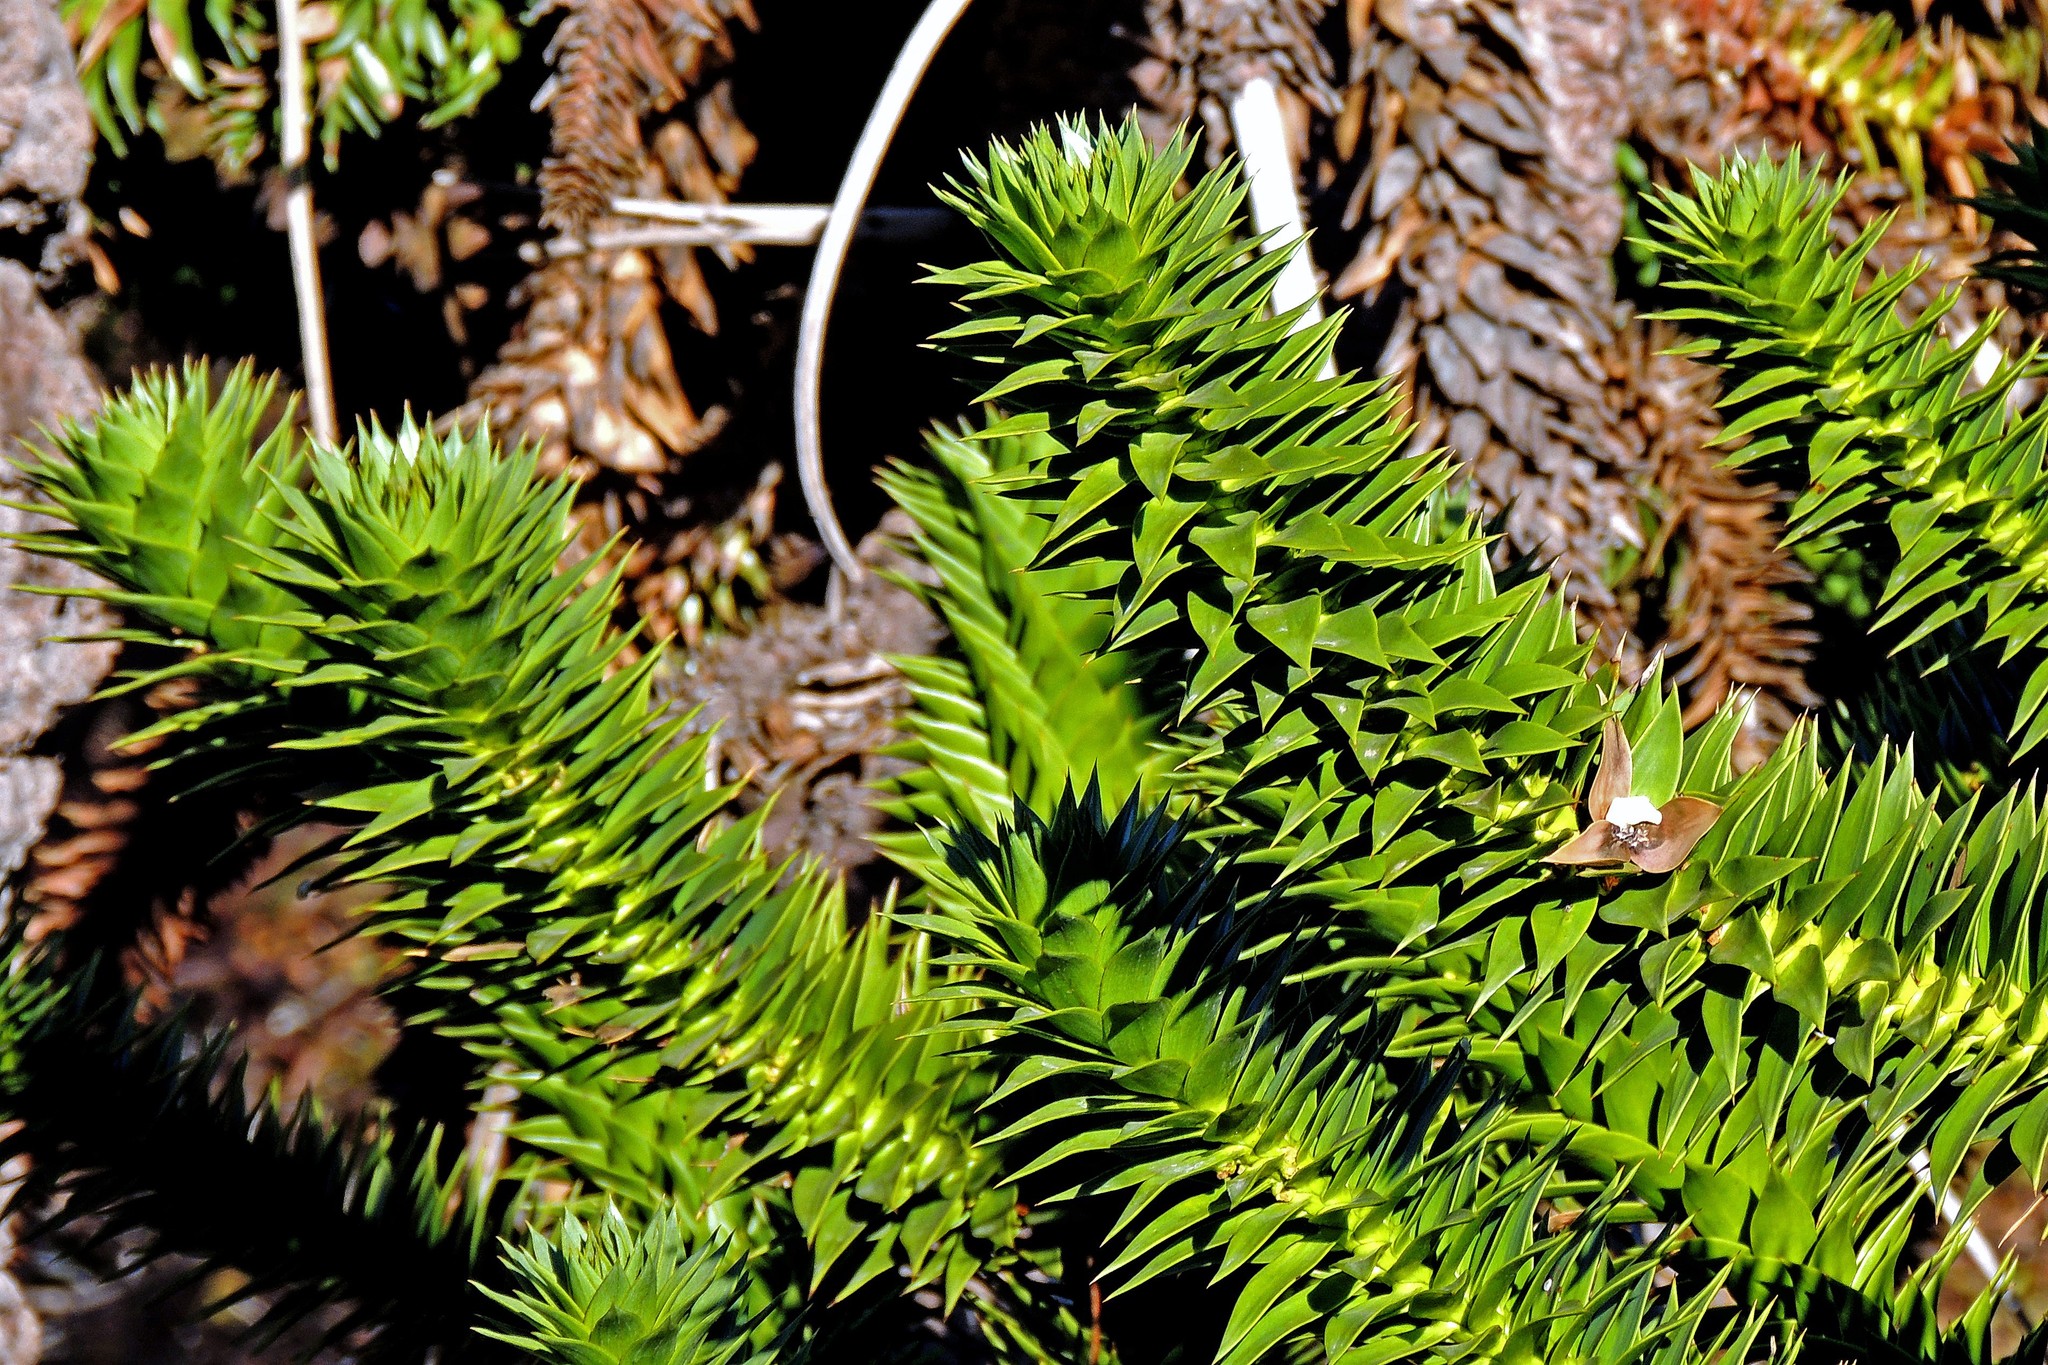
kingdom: Plantae
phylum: Tracheophyta
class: Pinopsida
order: Pinales
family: Araucariaceae
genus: Araucaria
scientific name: Araucaria araucana
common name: Monkey-puzzle
